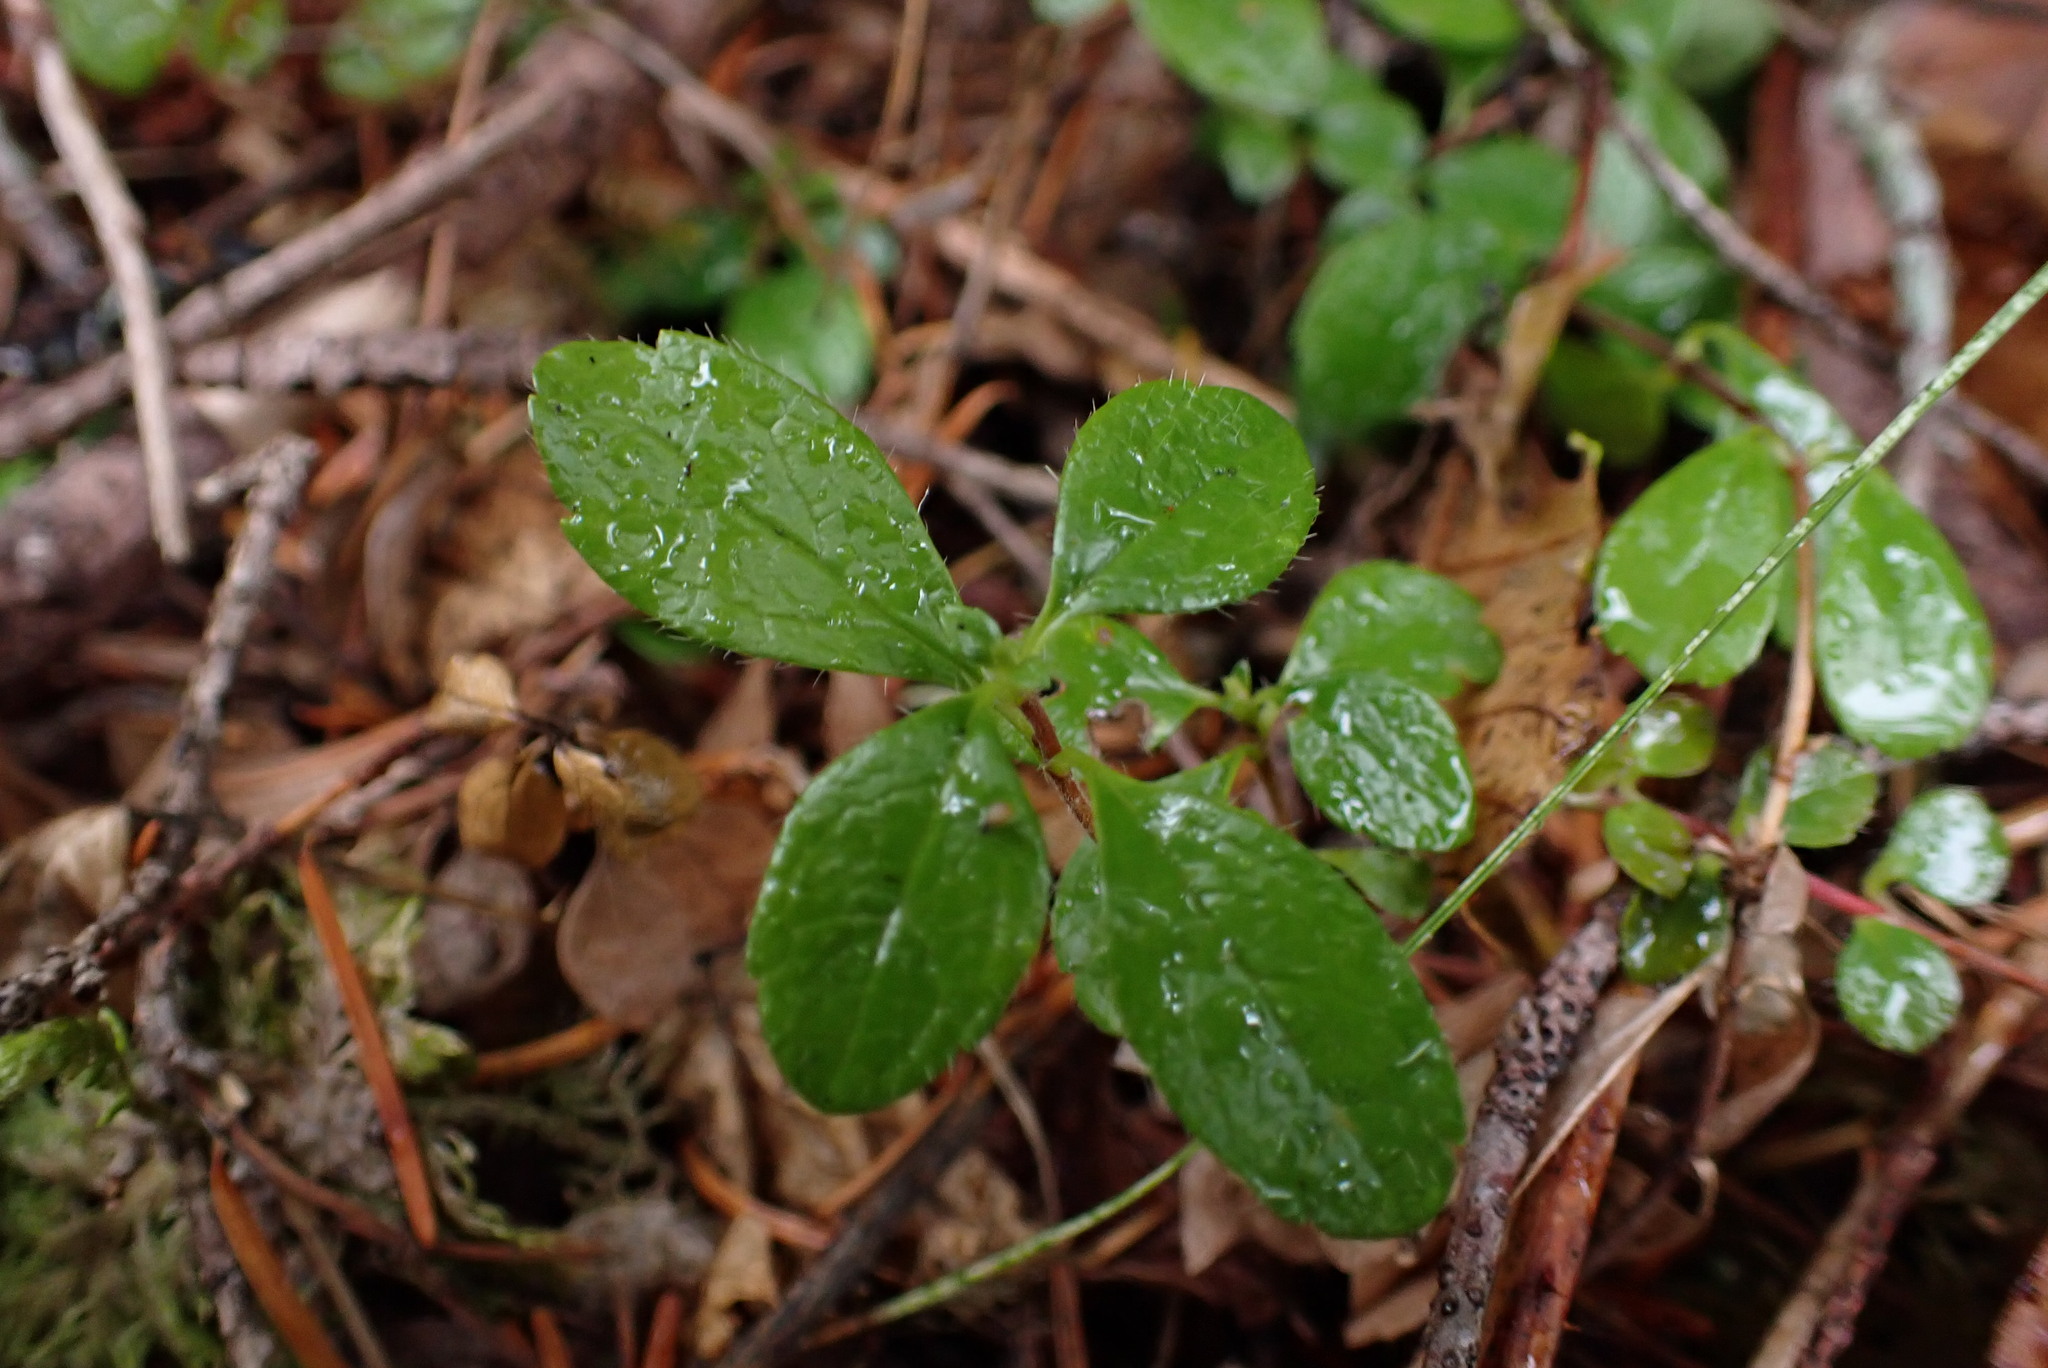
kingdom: Plantae
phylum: Tracheophyta
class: Magnoliopsida
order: Dipsacales
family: Caprifoliaceae
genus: Linnaea
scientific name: Linnaea borealis
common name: Twinflower
